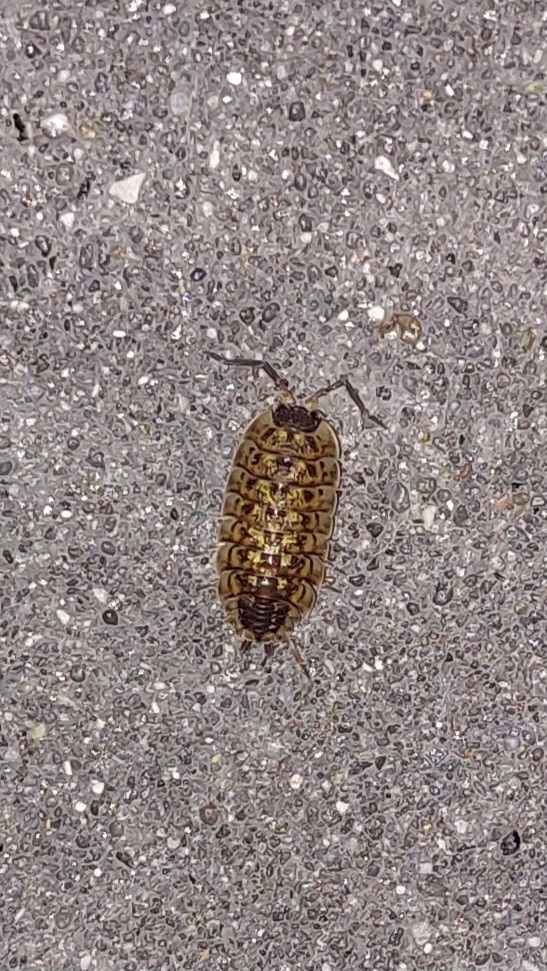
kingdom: Animalia
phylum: Arthropoda
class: Malacostraca
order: Isopoda
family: Porcellionidae
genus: Porcellio
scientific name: Porcellio spinicornis
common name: Painted woodlouse
